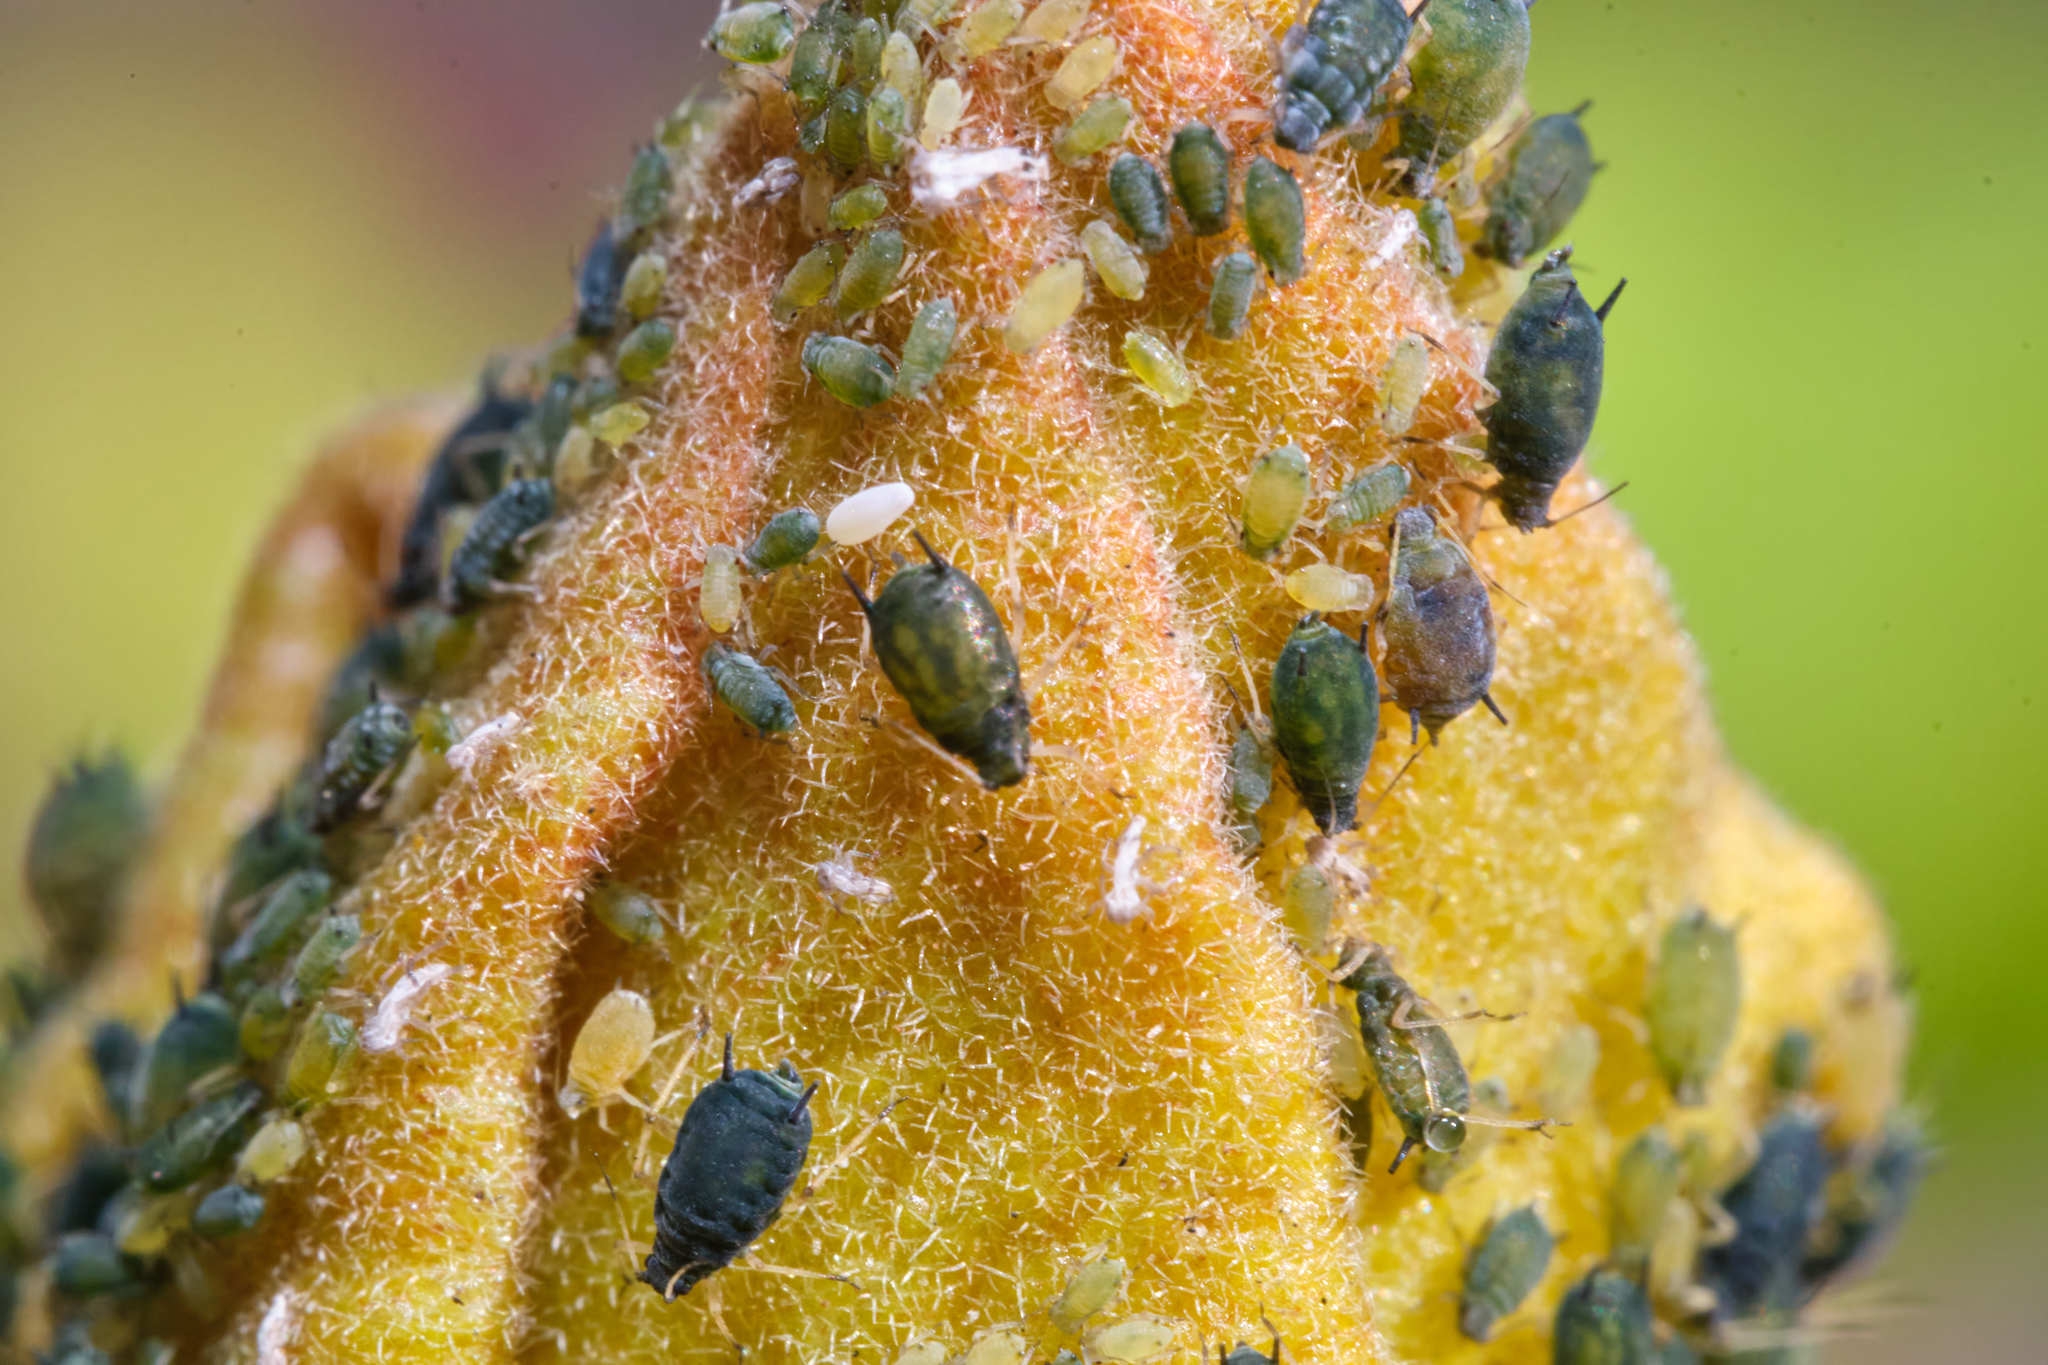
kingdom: Animalia
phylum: Arthropoda
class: Insecta
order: Hemiptera
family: Aphididae
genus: Aphis
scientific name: Aphis gossypii
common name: Melon aphid
